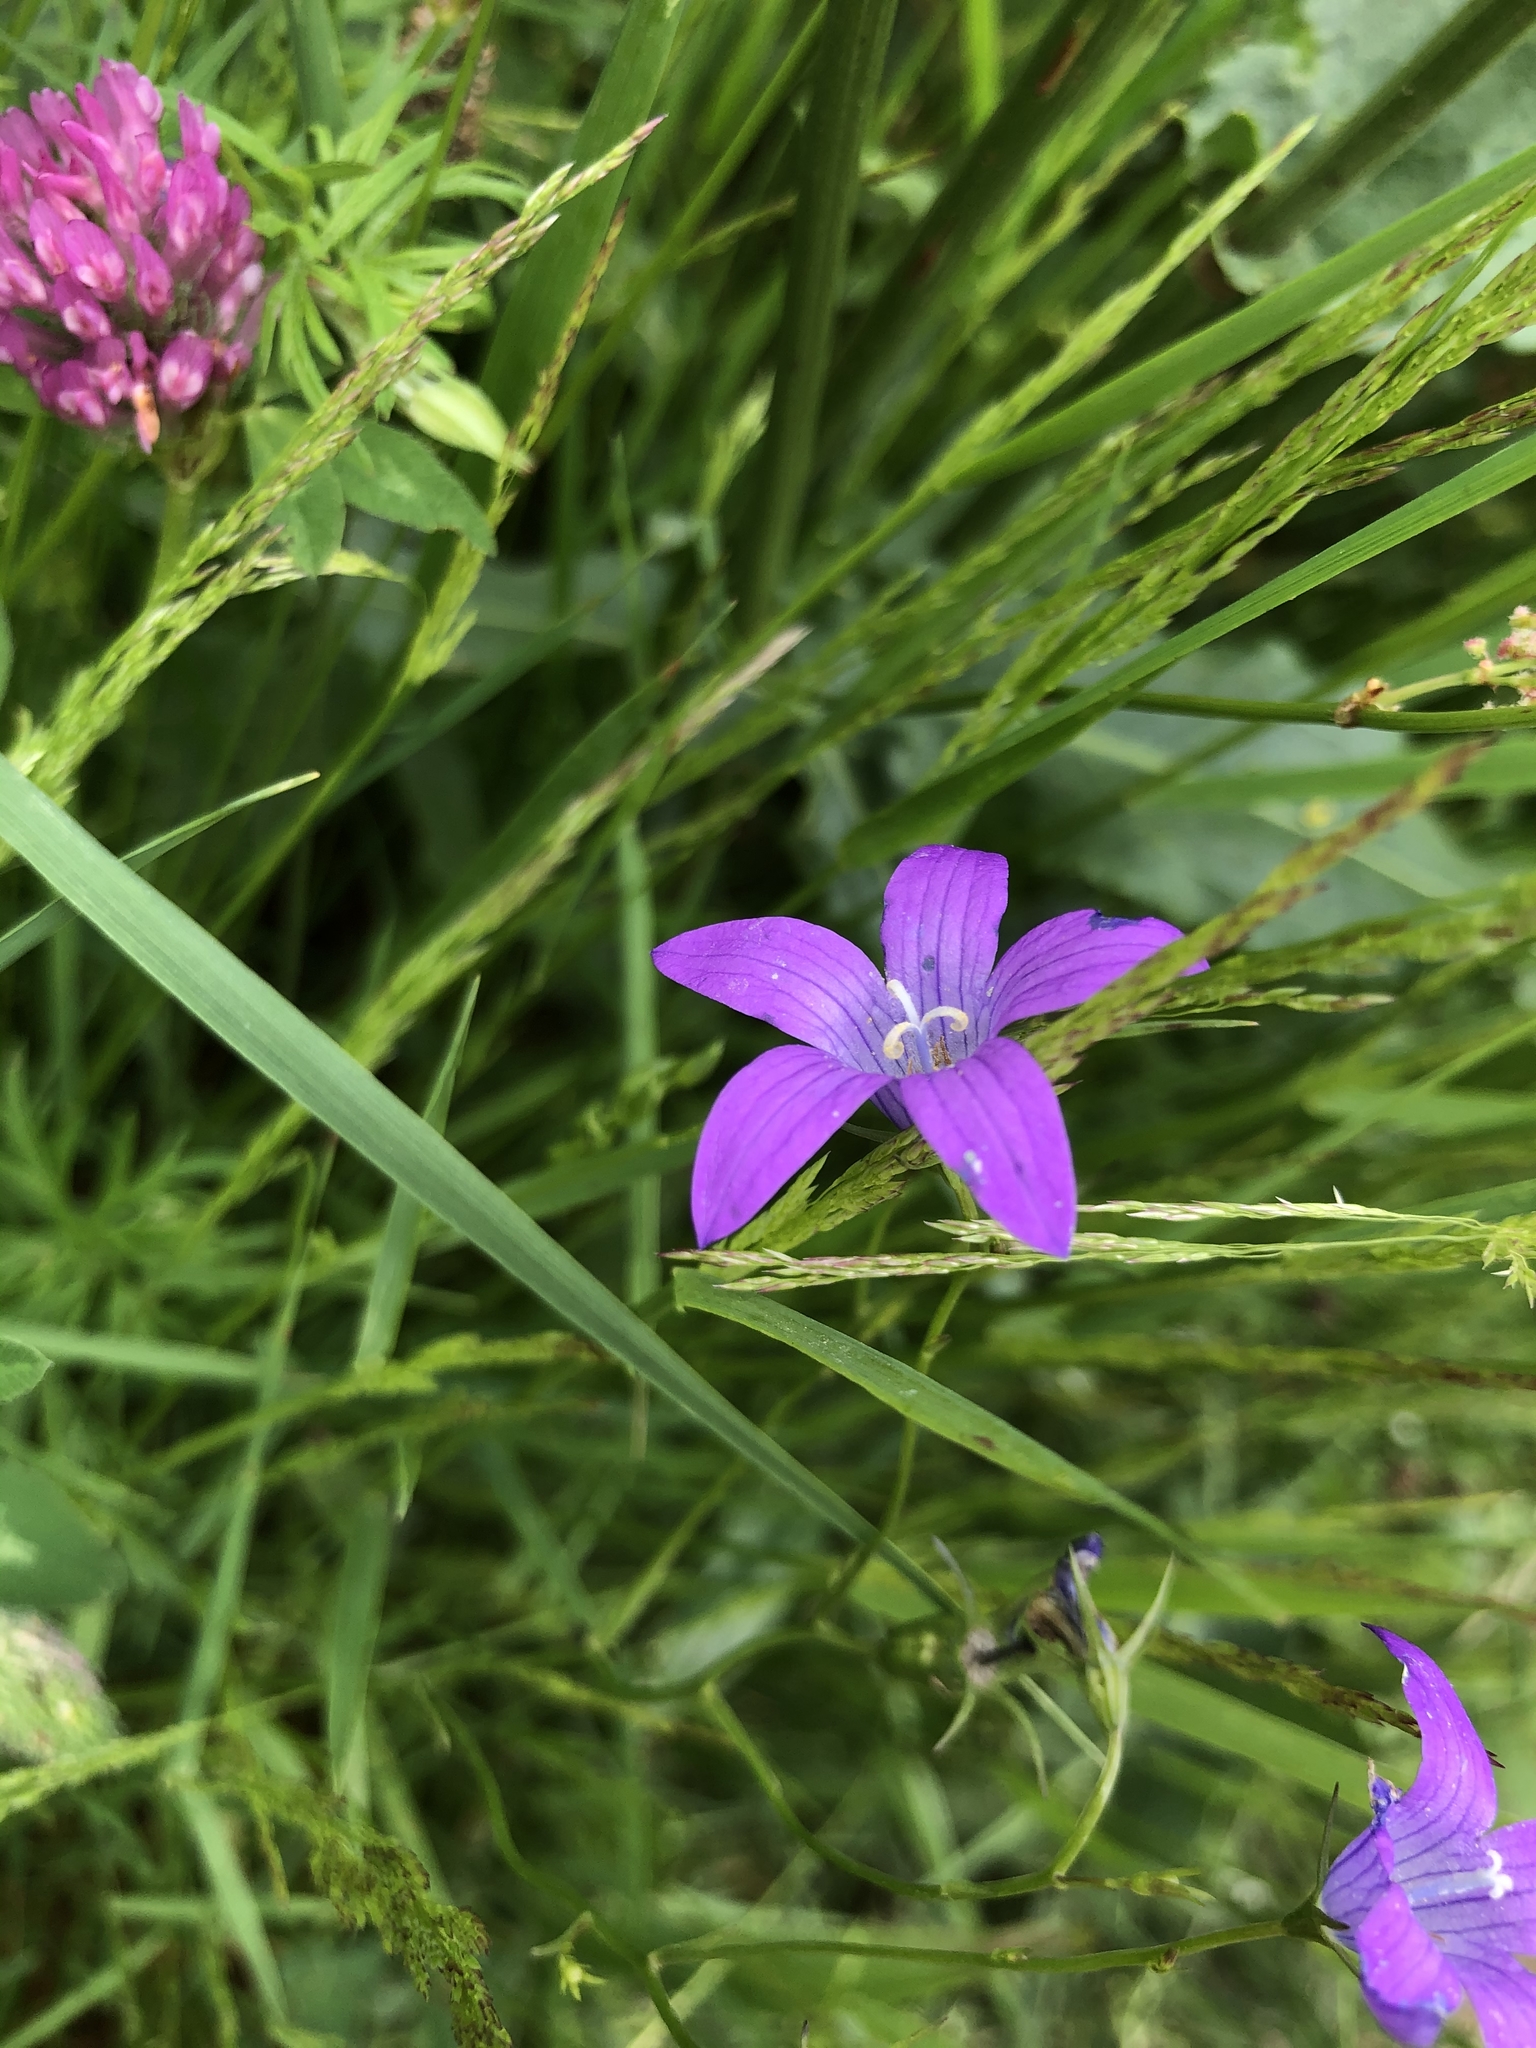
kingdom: Plantae
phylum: Tracheophyta
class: Magnoliopsida
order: Asterales
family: Campanulaceae
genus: Campanula
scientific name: Campanula patula
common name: Spreading bellflower
